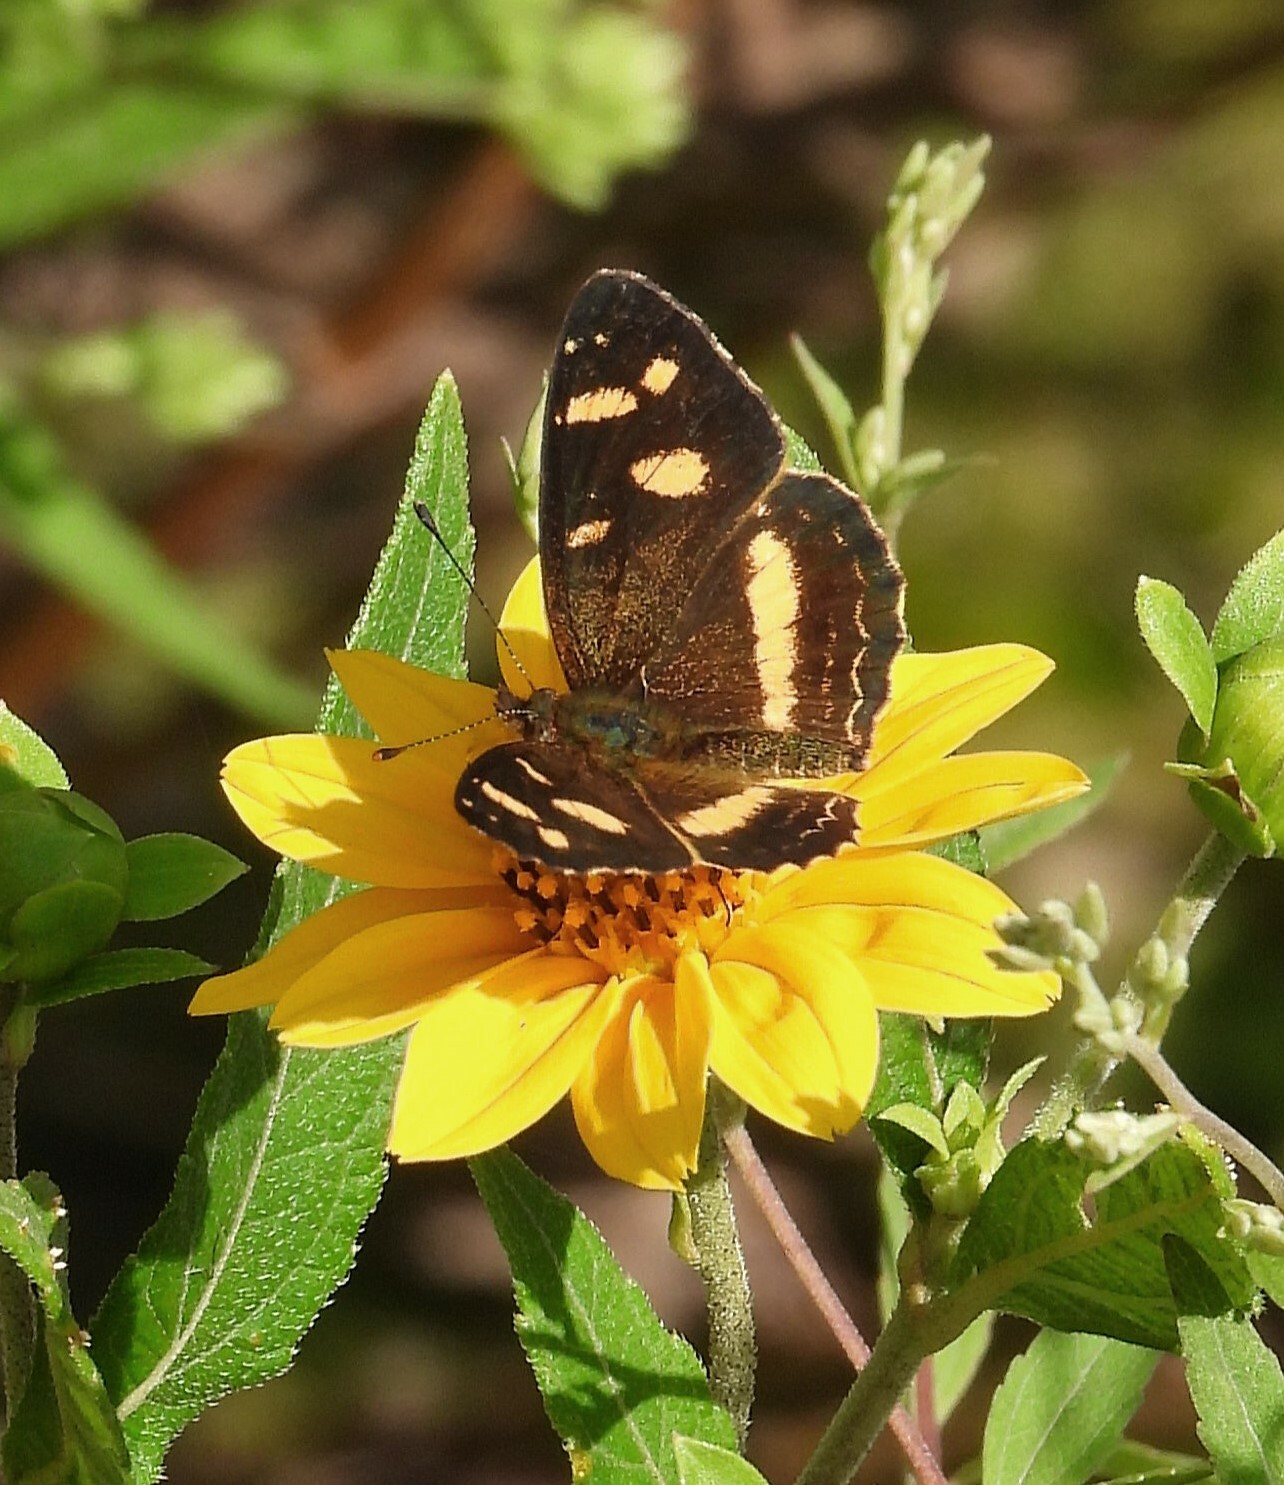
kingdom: Animalia
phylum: Arthropoda
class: Insecta
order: Lepidoptera
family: Nymphalidae
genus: Telenassa
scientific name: Telenassa berenice
